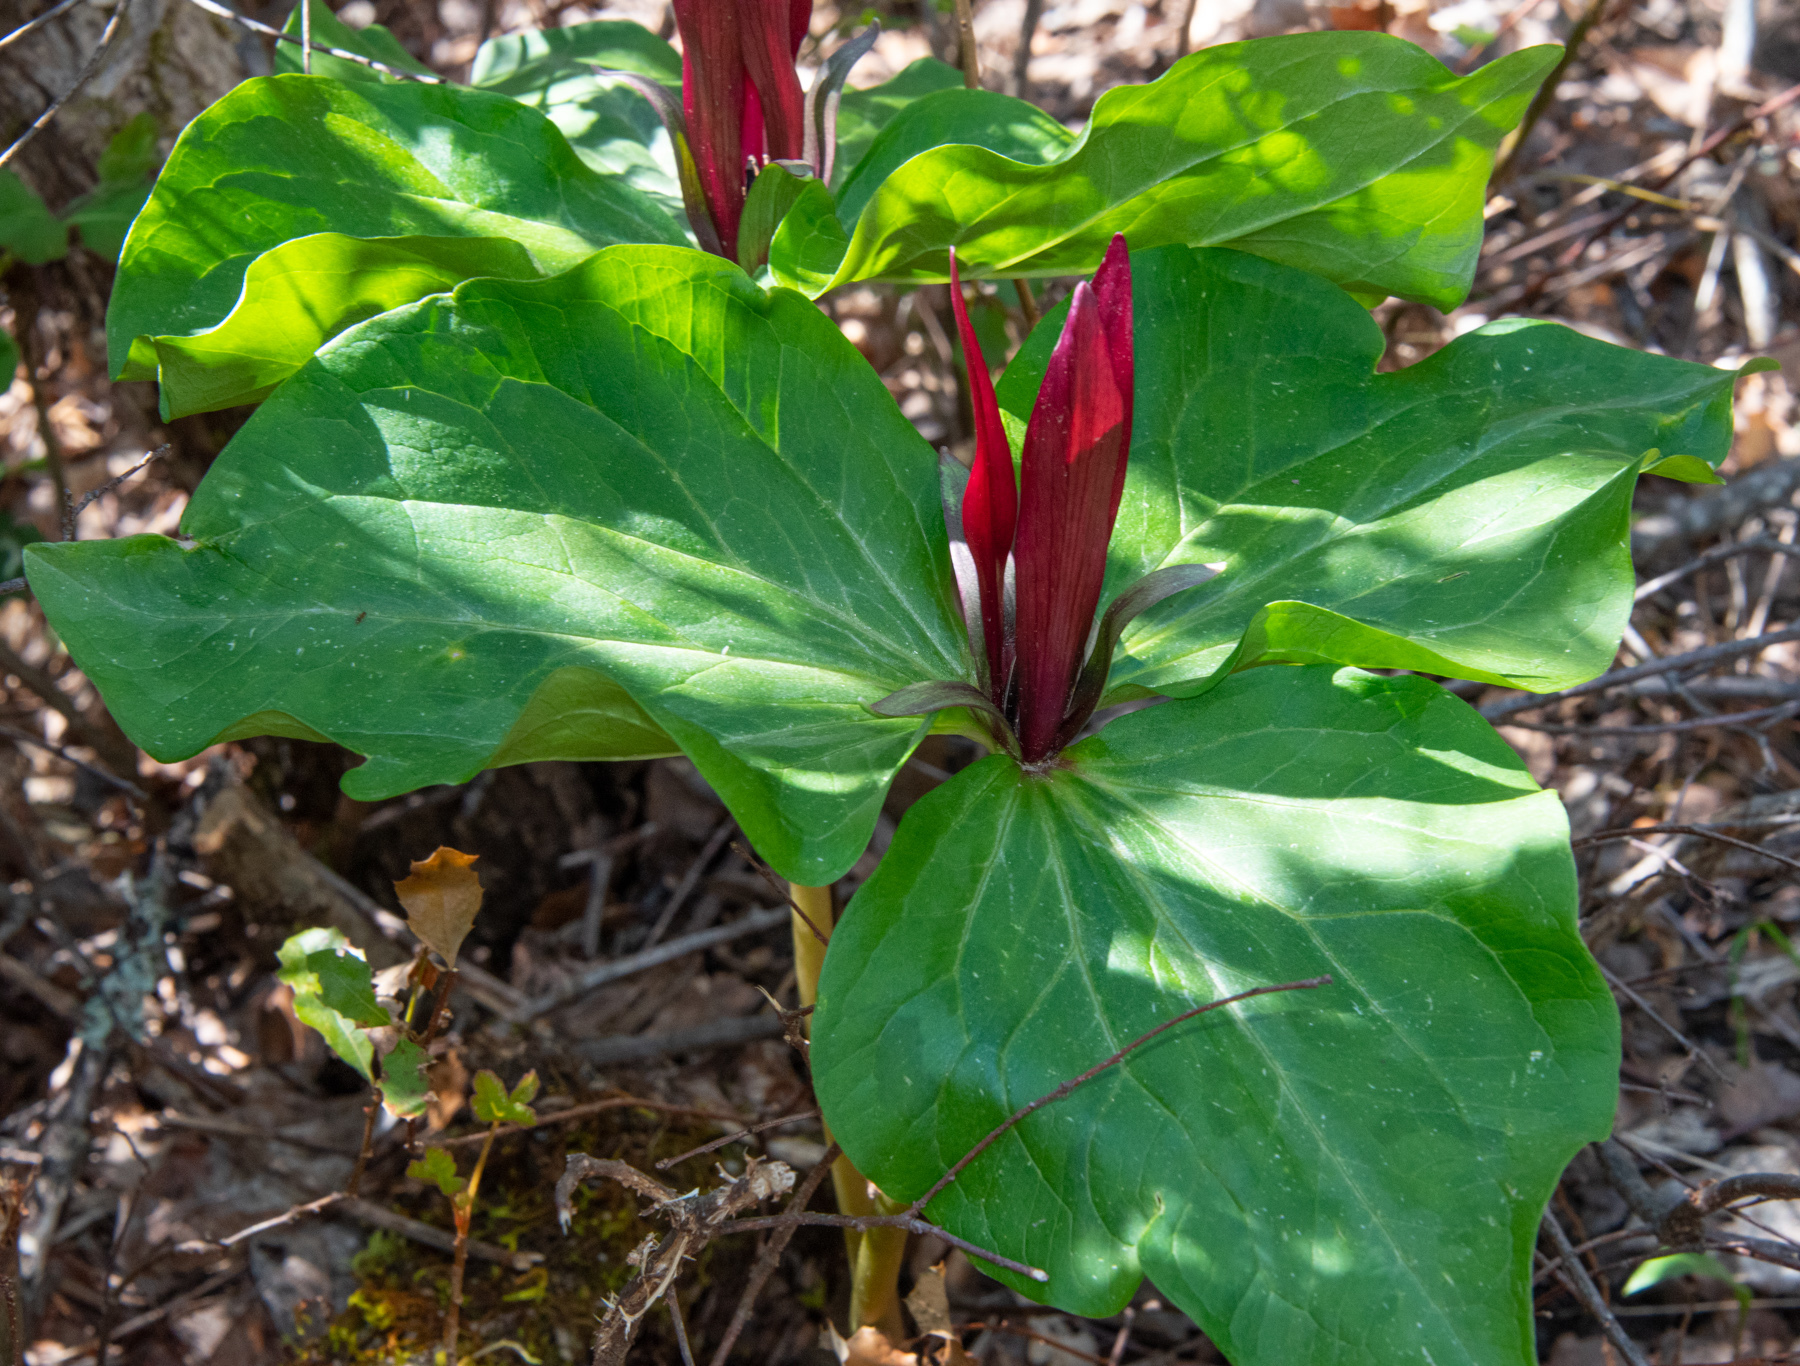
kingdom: Plantae
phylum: Tracheophyta
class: Liliopsida
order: Liliales
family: Melanthiaceae
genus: Trillium
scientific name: Trillium chloropetalum
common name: Giant trillium
